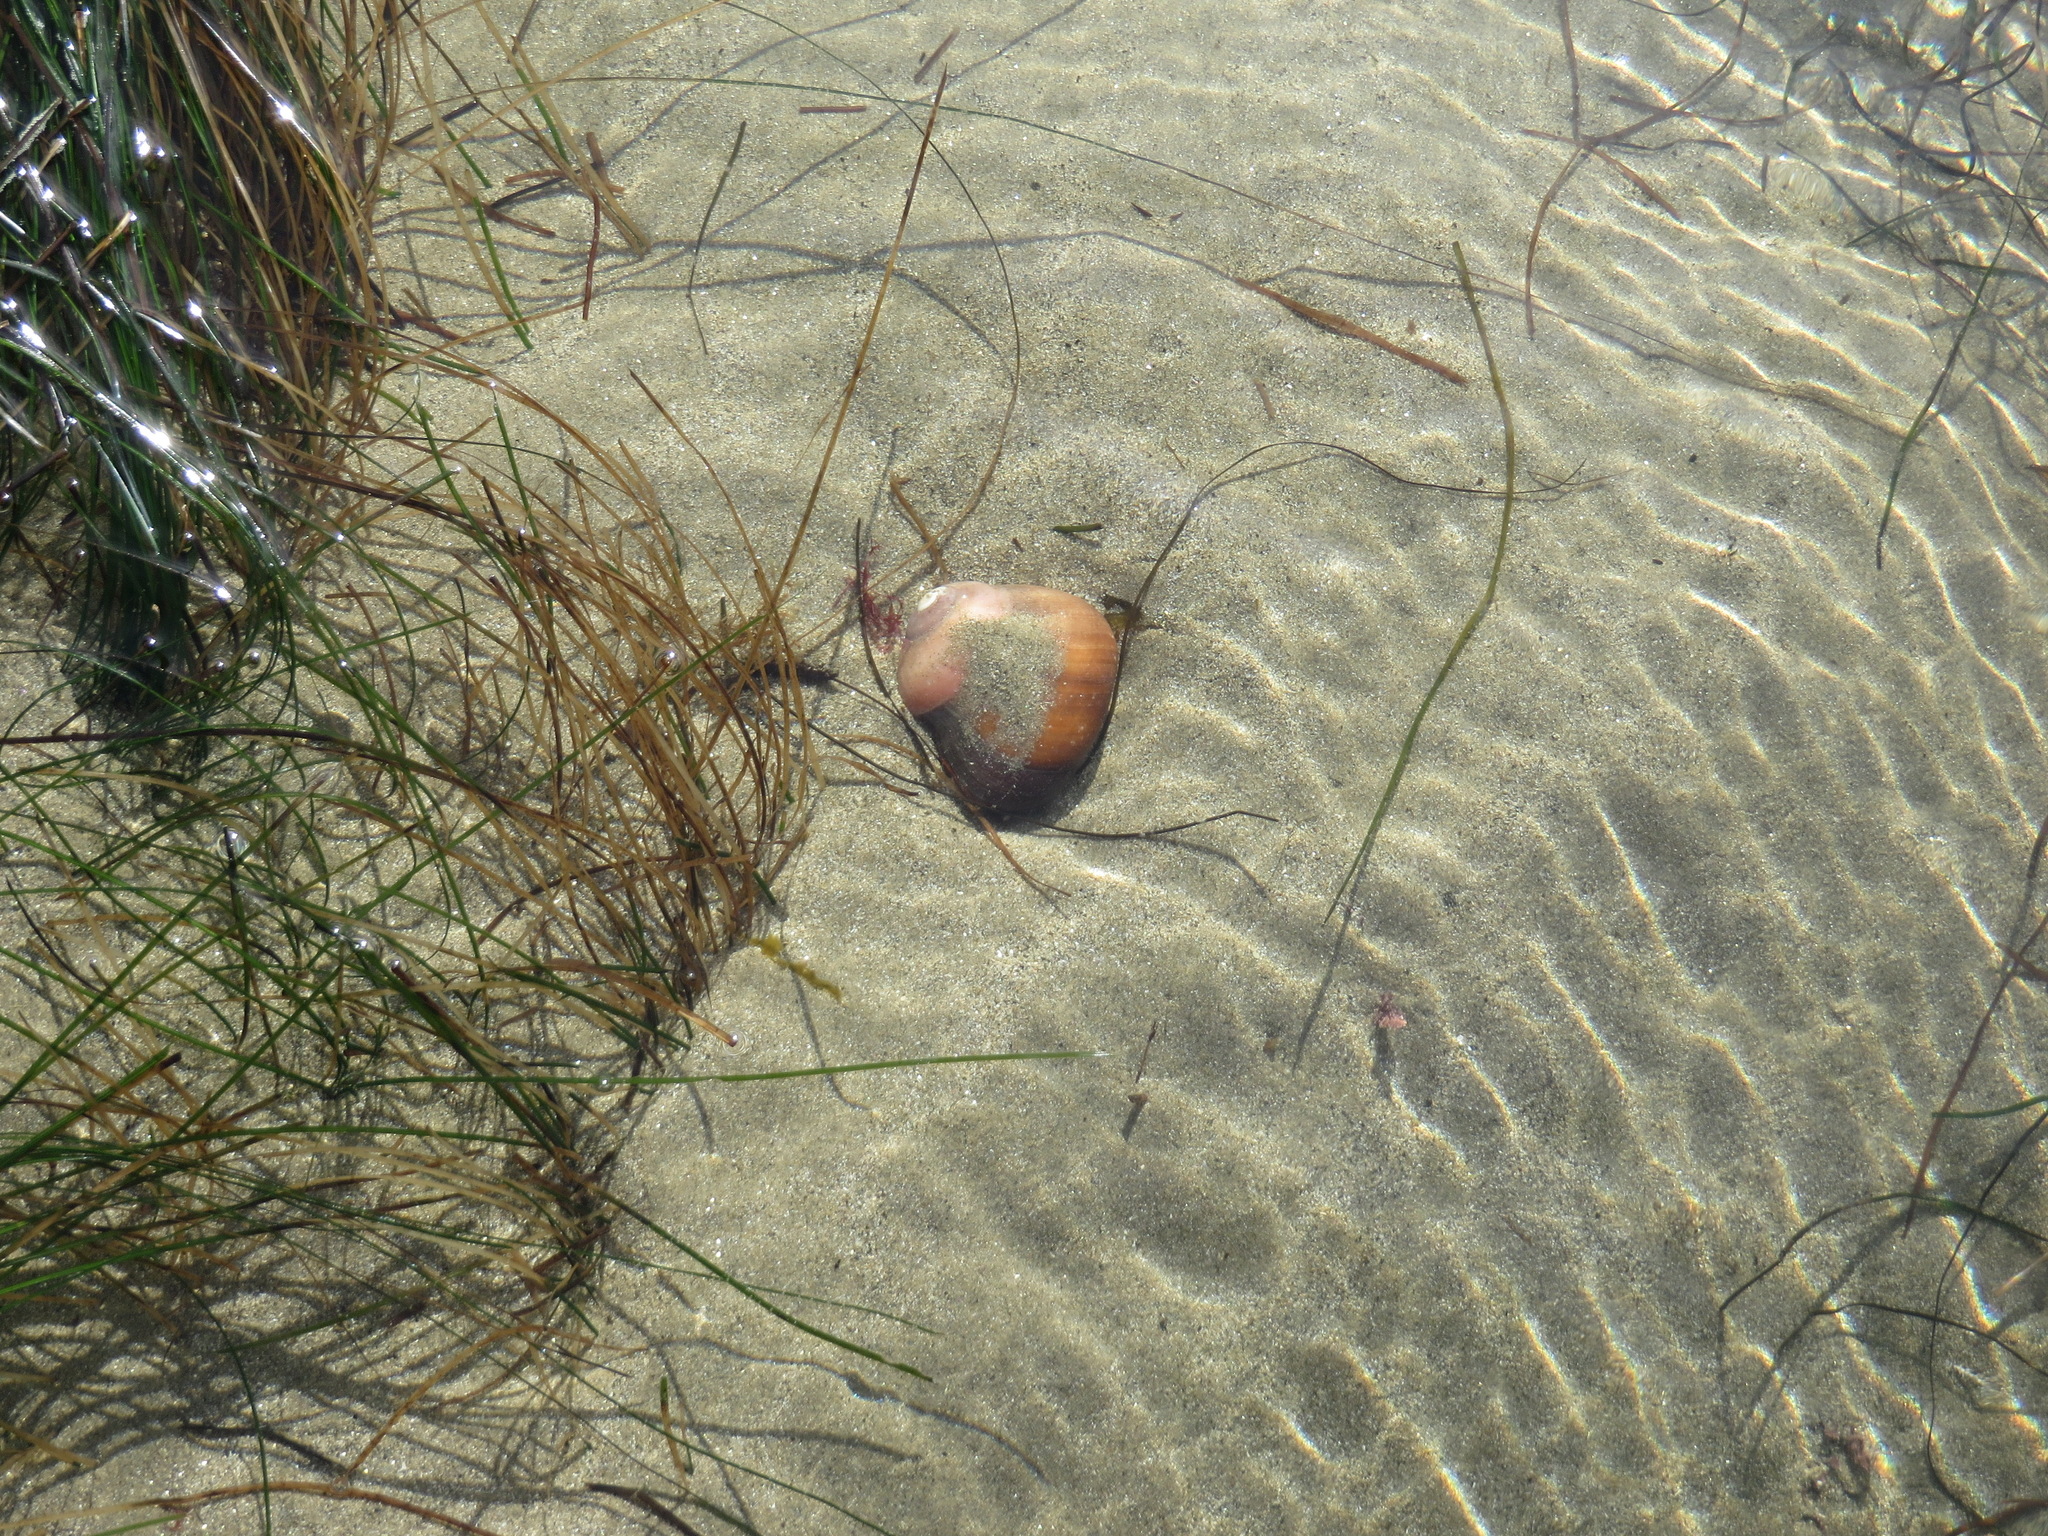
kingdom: Animalia
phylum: Mollusca
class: Gastropoda
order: Trochida
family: Tegulidae
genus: Norrisia
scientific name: Norrisia norrisii
